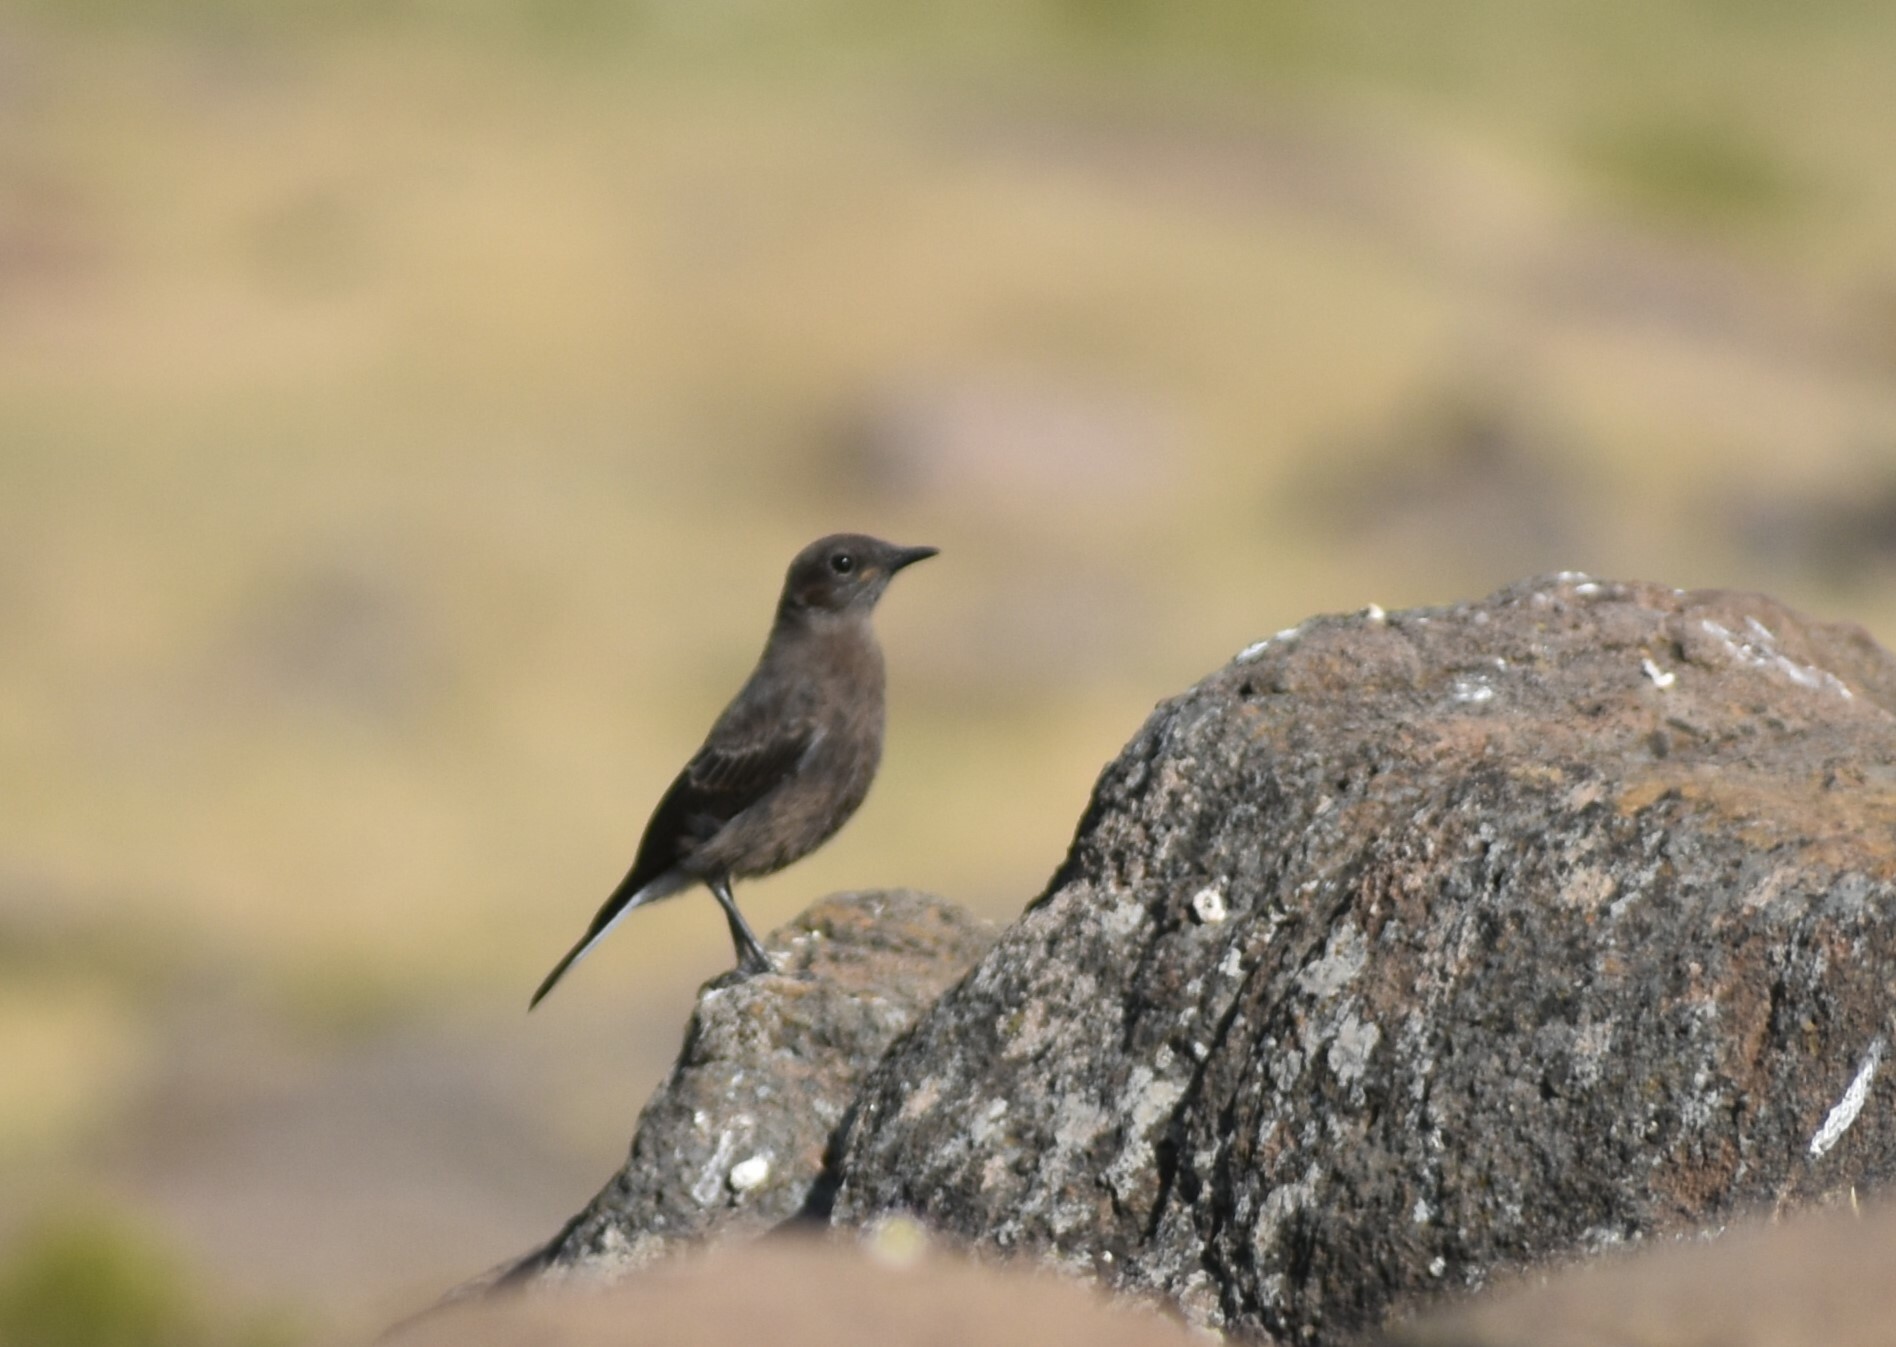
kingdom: Animalia
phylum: Chordata
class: Aves
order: Passeriformes
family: Muscicapidae
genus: Oenanthe
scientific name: Oenanthe monticola
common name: Mountain wheatear
